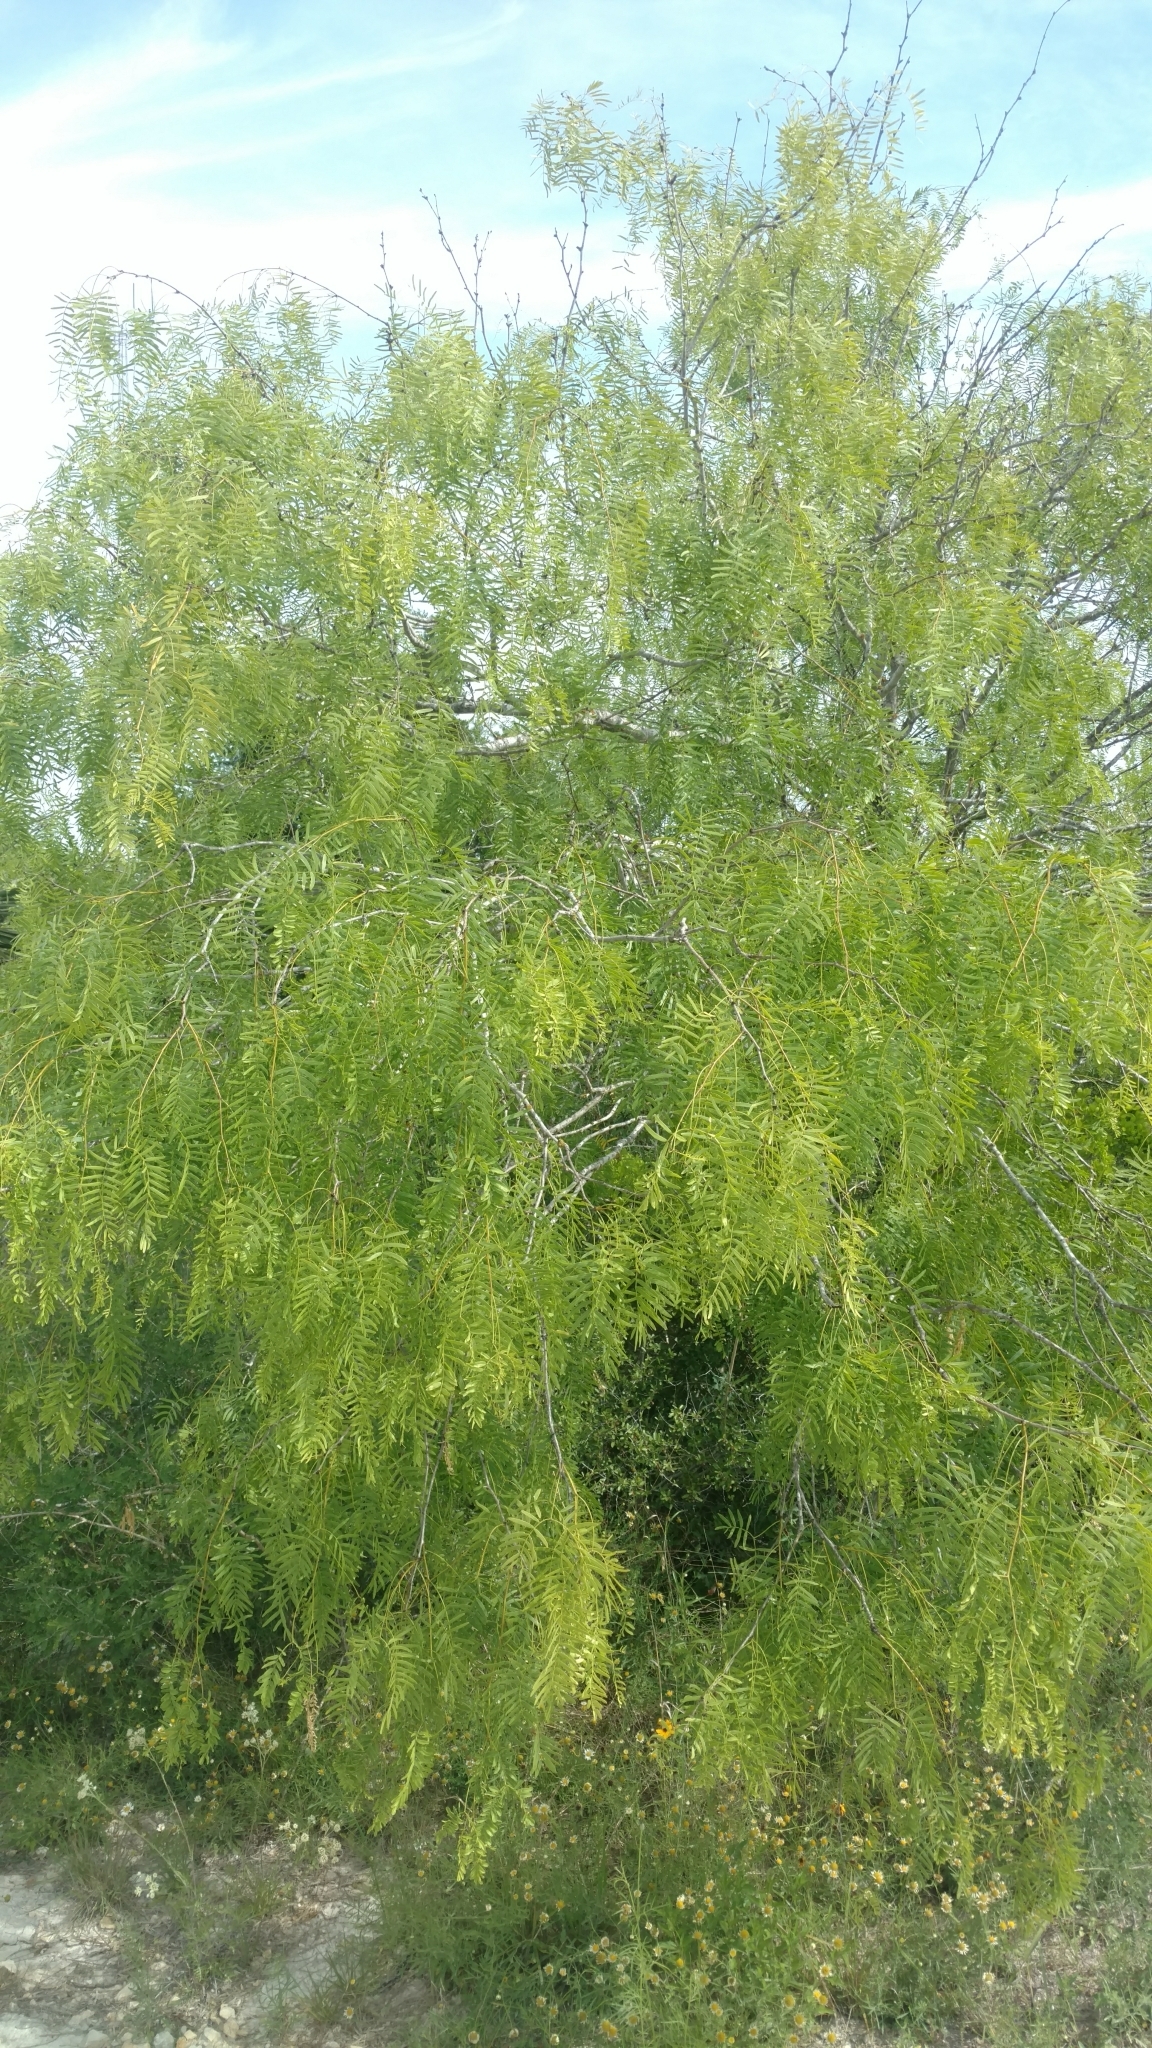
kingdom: Plantae
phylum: Tracheophyta
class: Magnoliopsida
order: Fabales
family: Fabaceae
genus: Prosopis
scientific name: Prosopis glandulosa
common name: Honey mesquite
